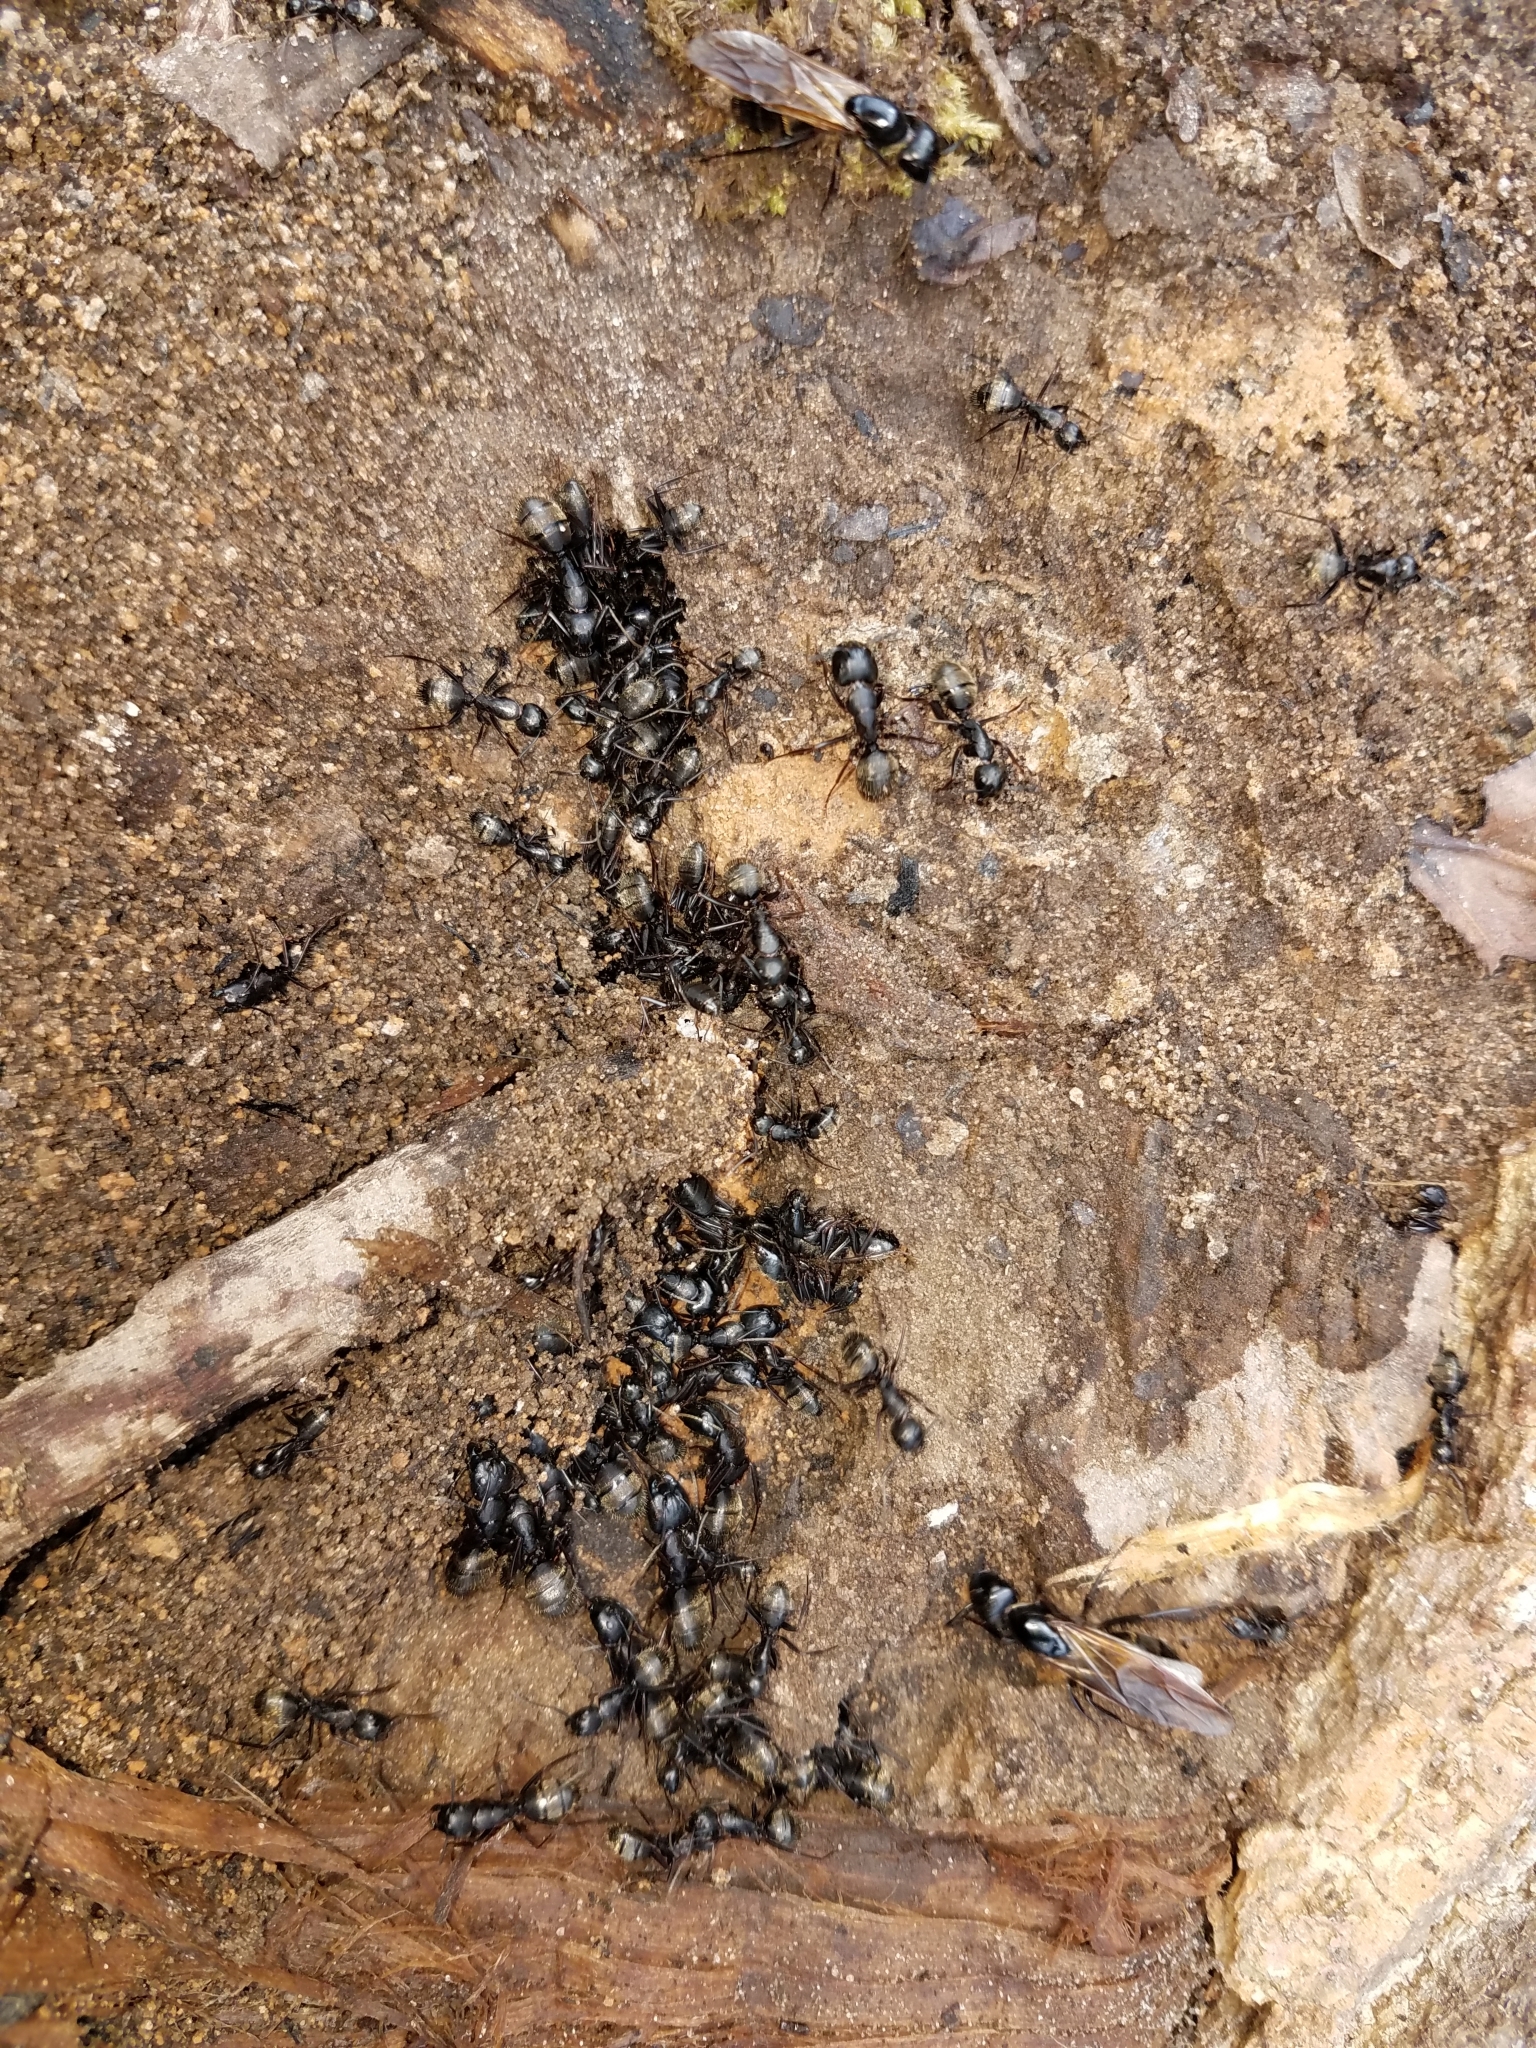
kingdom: Animalia
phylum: Arthropoda
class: Insecta
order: Hymenoptera
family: Formicidae
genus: Camponotus
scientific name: Camponotus pennsylvanicus
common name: Black carpenter ant
